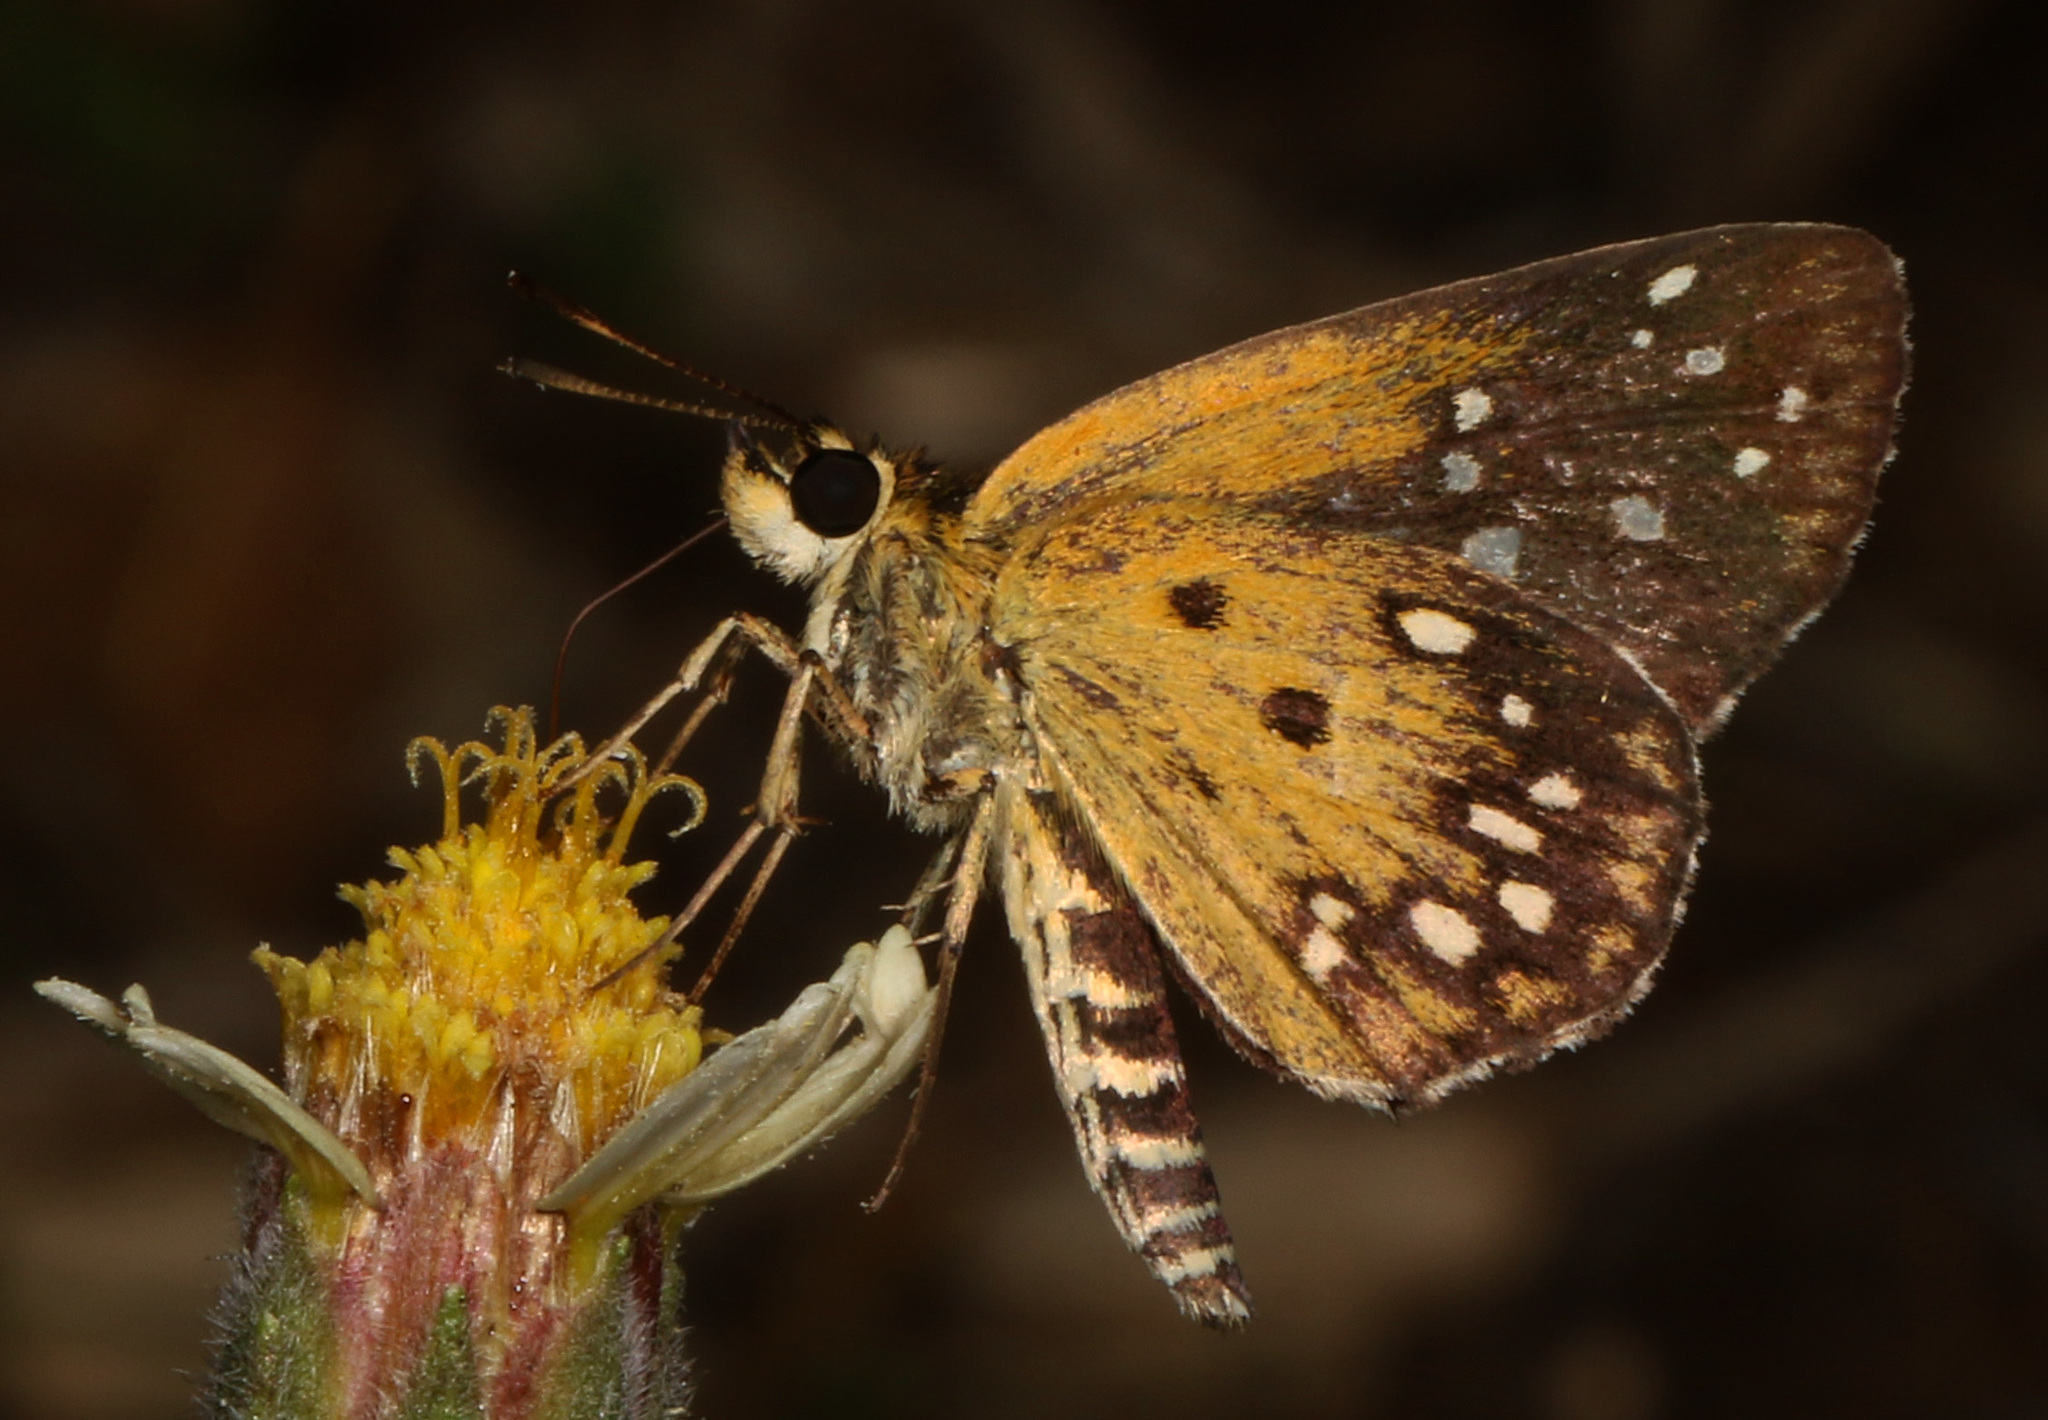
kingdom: Animalia
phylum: Arthropoda
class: Insecta
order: Lepidoptera
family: Hesperiidae
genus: Dotta
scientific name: Dotta
